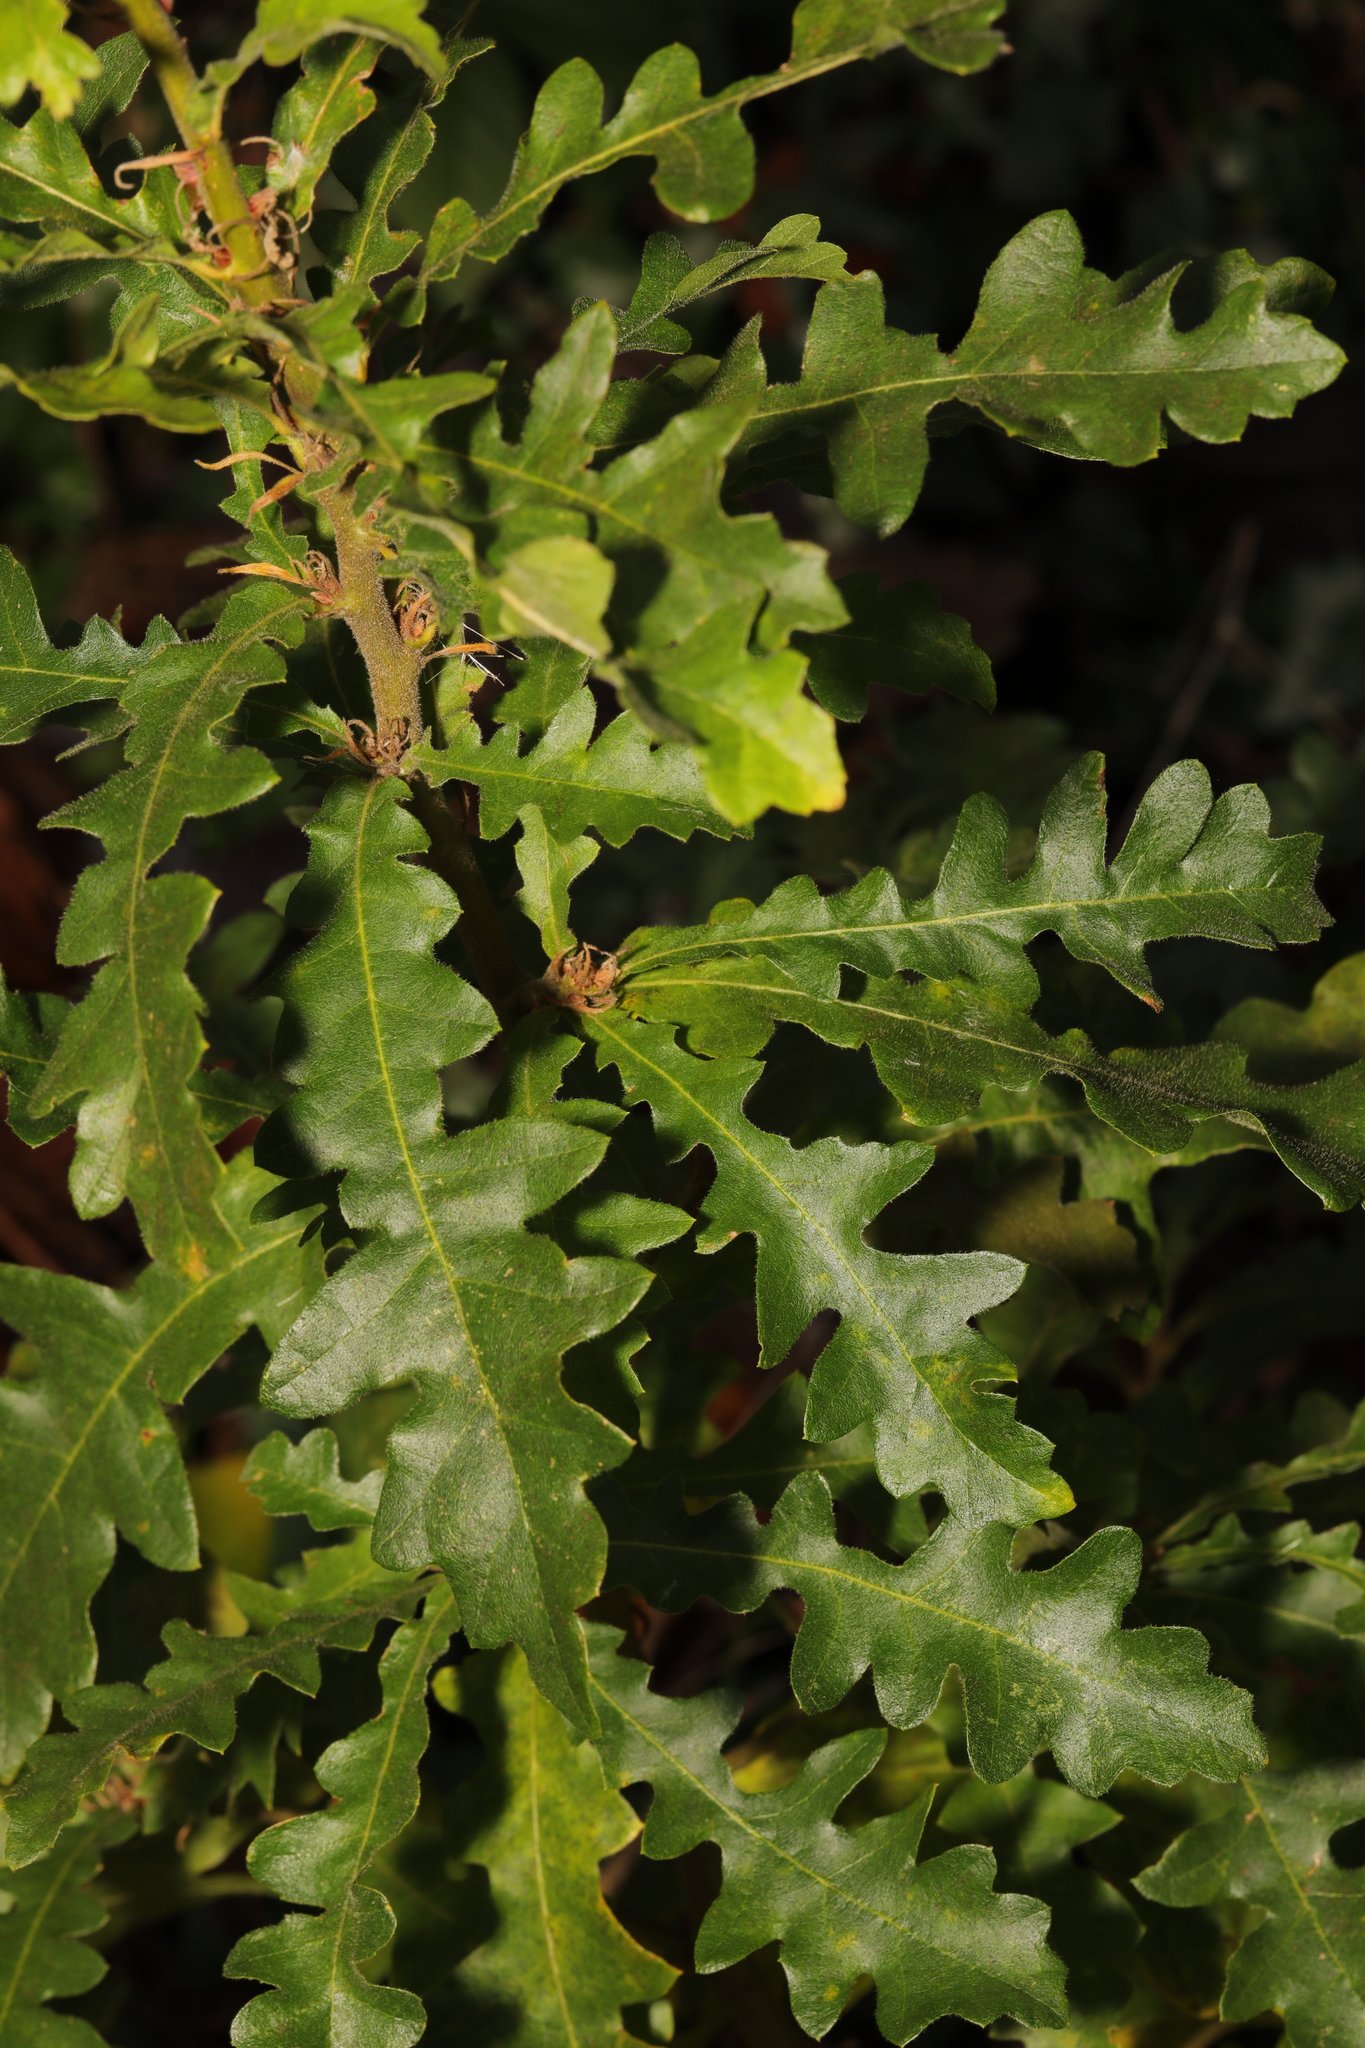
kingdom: Plantae
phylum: Tracheophyta
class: Magnoliopsida
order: Fagales
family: Fagaceae
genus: Quercus
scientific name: Quercus cerris
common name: Turkey oak
